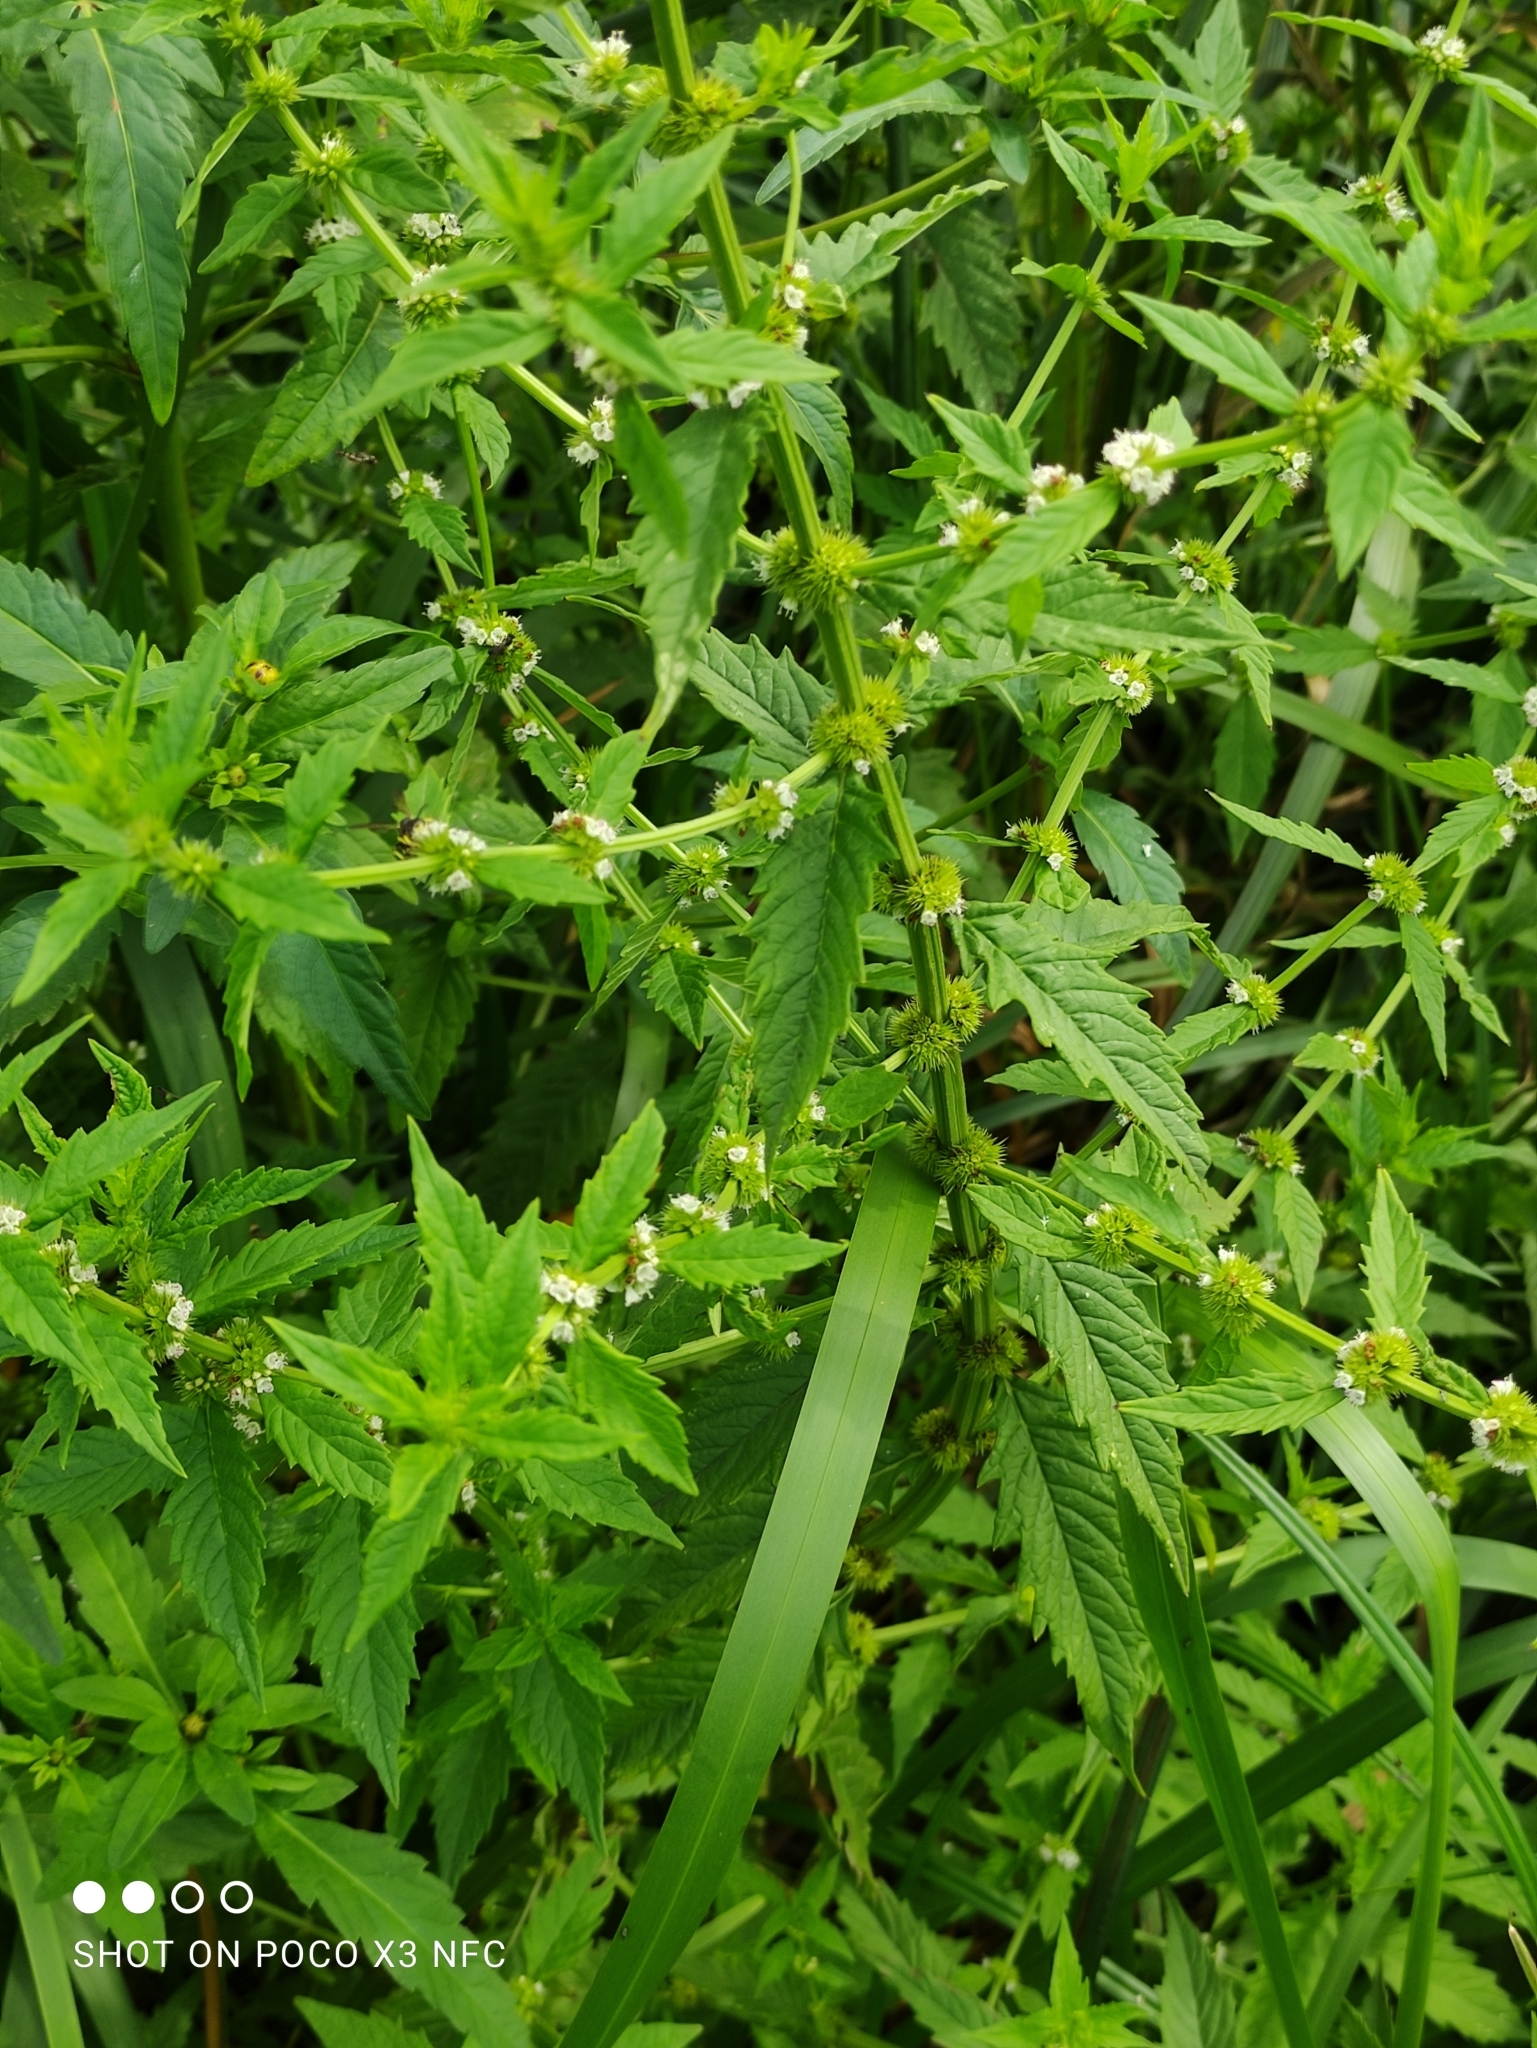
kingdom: Plantae
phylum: Tracheophyta
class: Magnoliopsida
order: Lamiales
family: Lamiaceae
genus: Lycopus
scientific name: Lycopus europaeus
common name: European bugleweed
